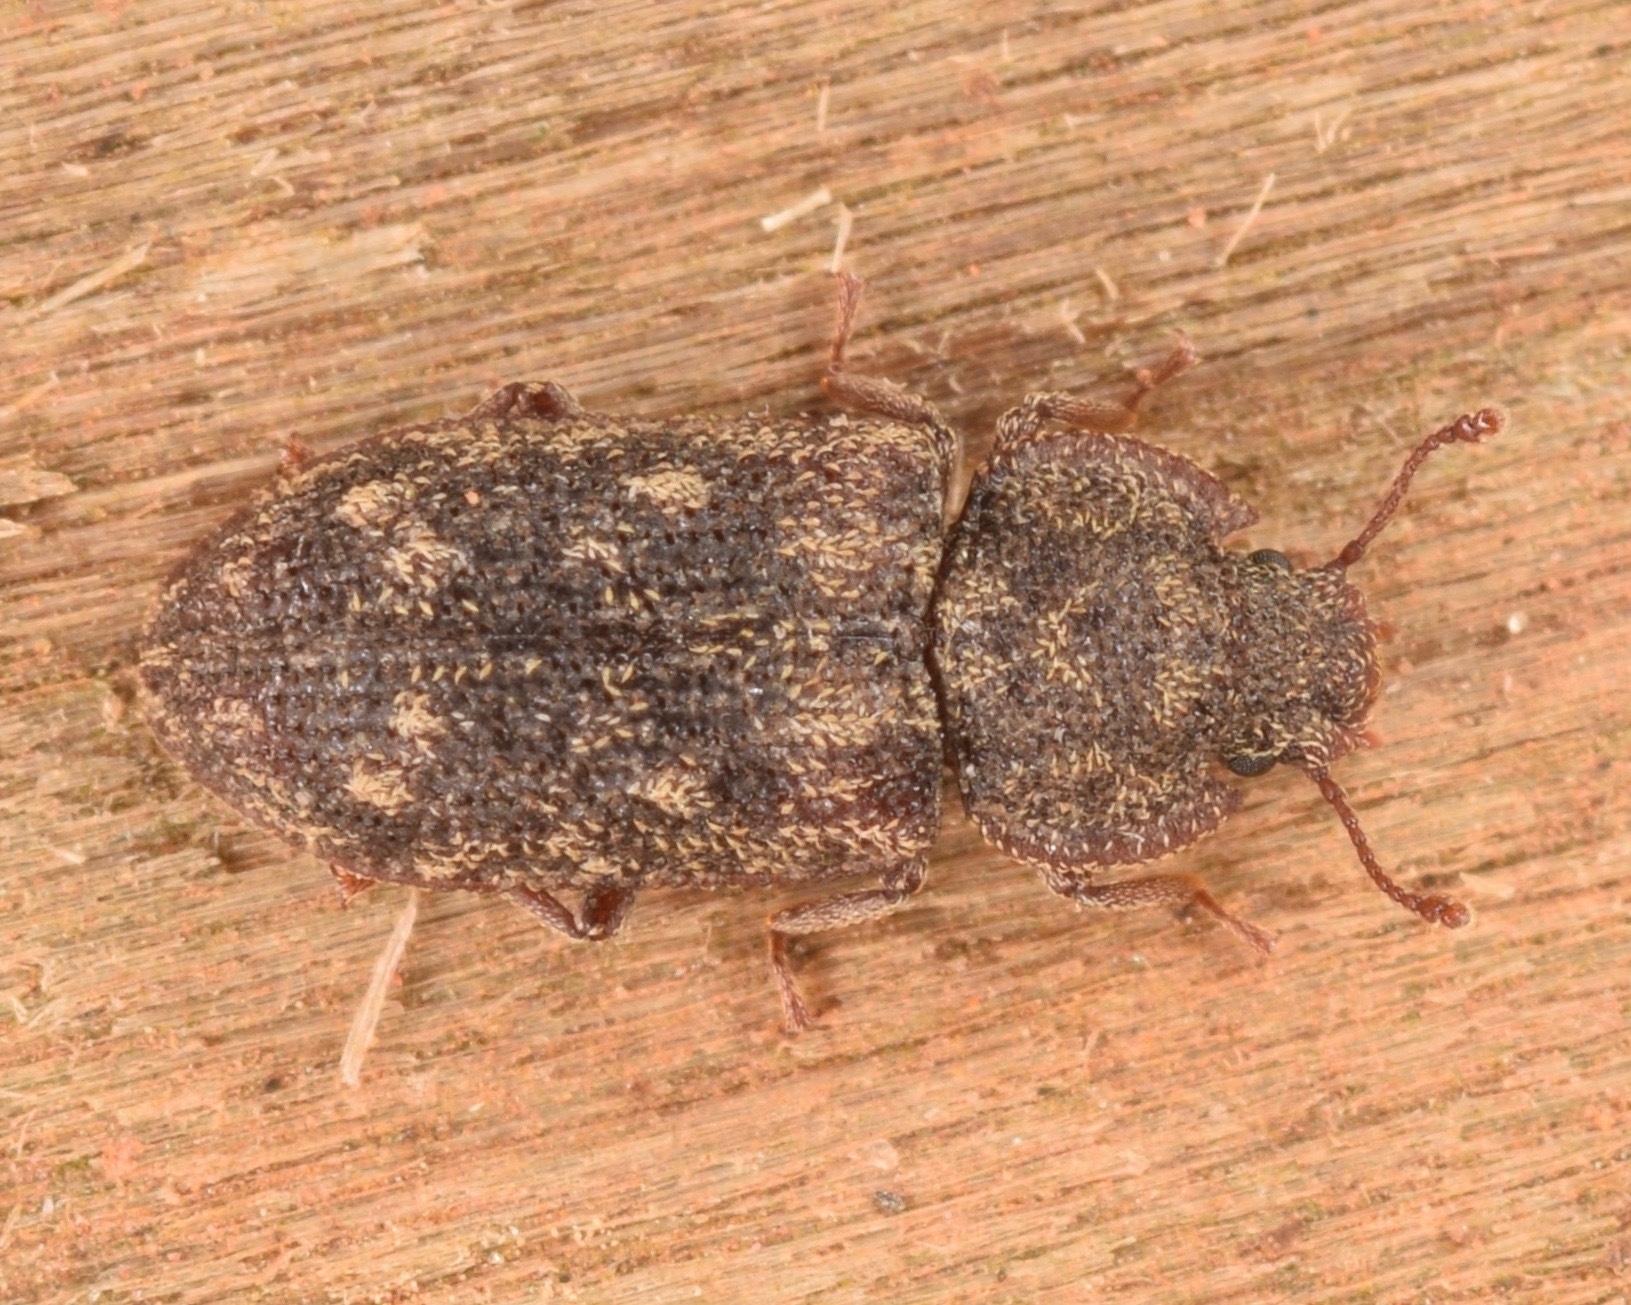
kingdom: Animalia
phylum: Arthropoda
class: Insecta
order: Coleoptera
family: Zopheridae
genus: Namunaria
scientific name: Namunaria guttulata
